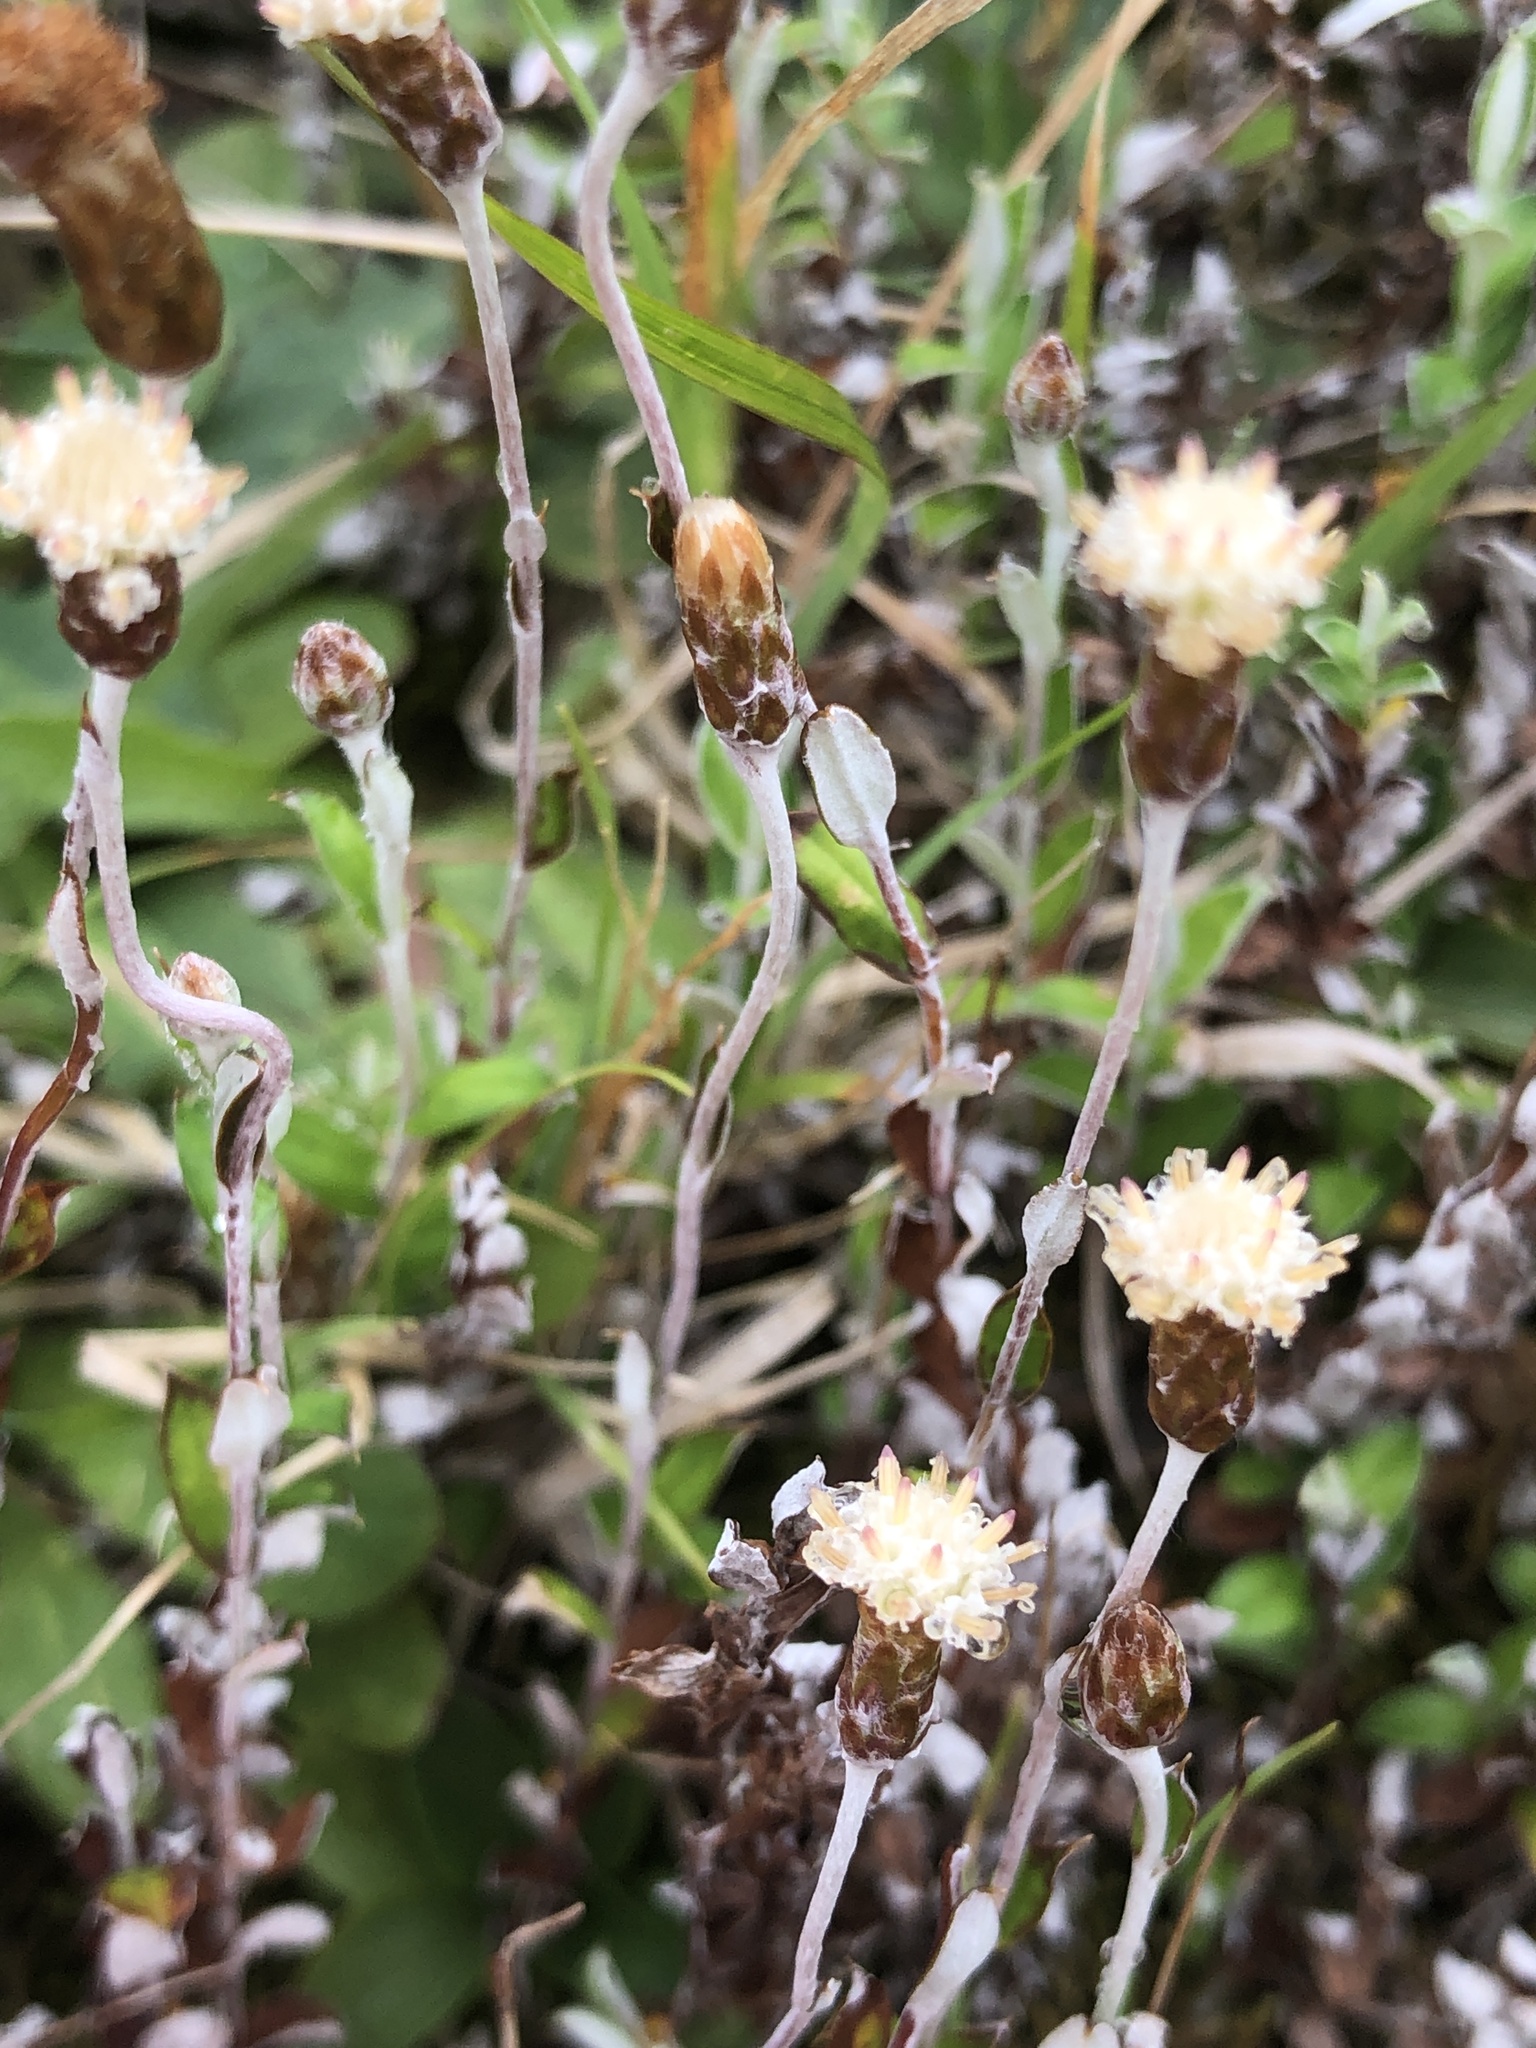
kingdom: Plantae
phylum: Tracheophyta
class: Magnoliopsida
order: Asterales
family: Asteraceae
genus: Helichrysum
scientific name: Helichrysum filicaule
